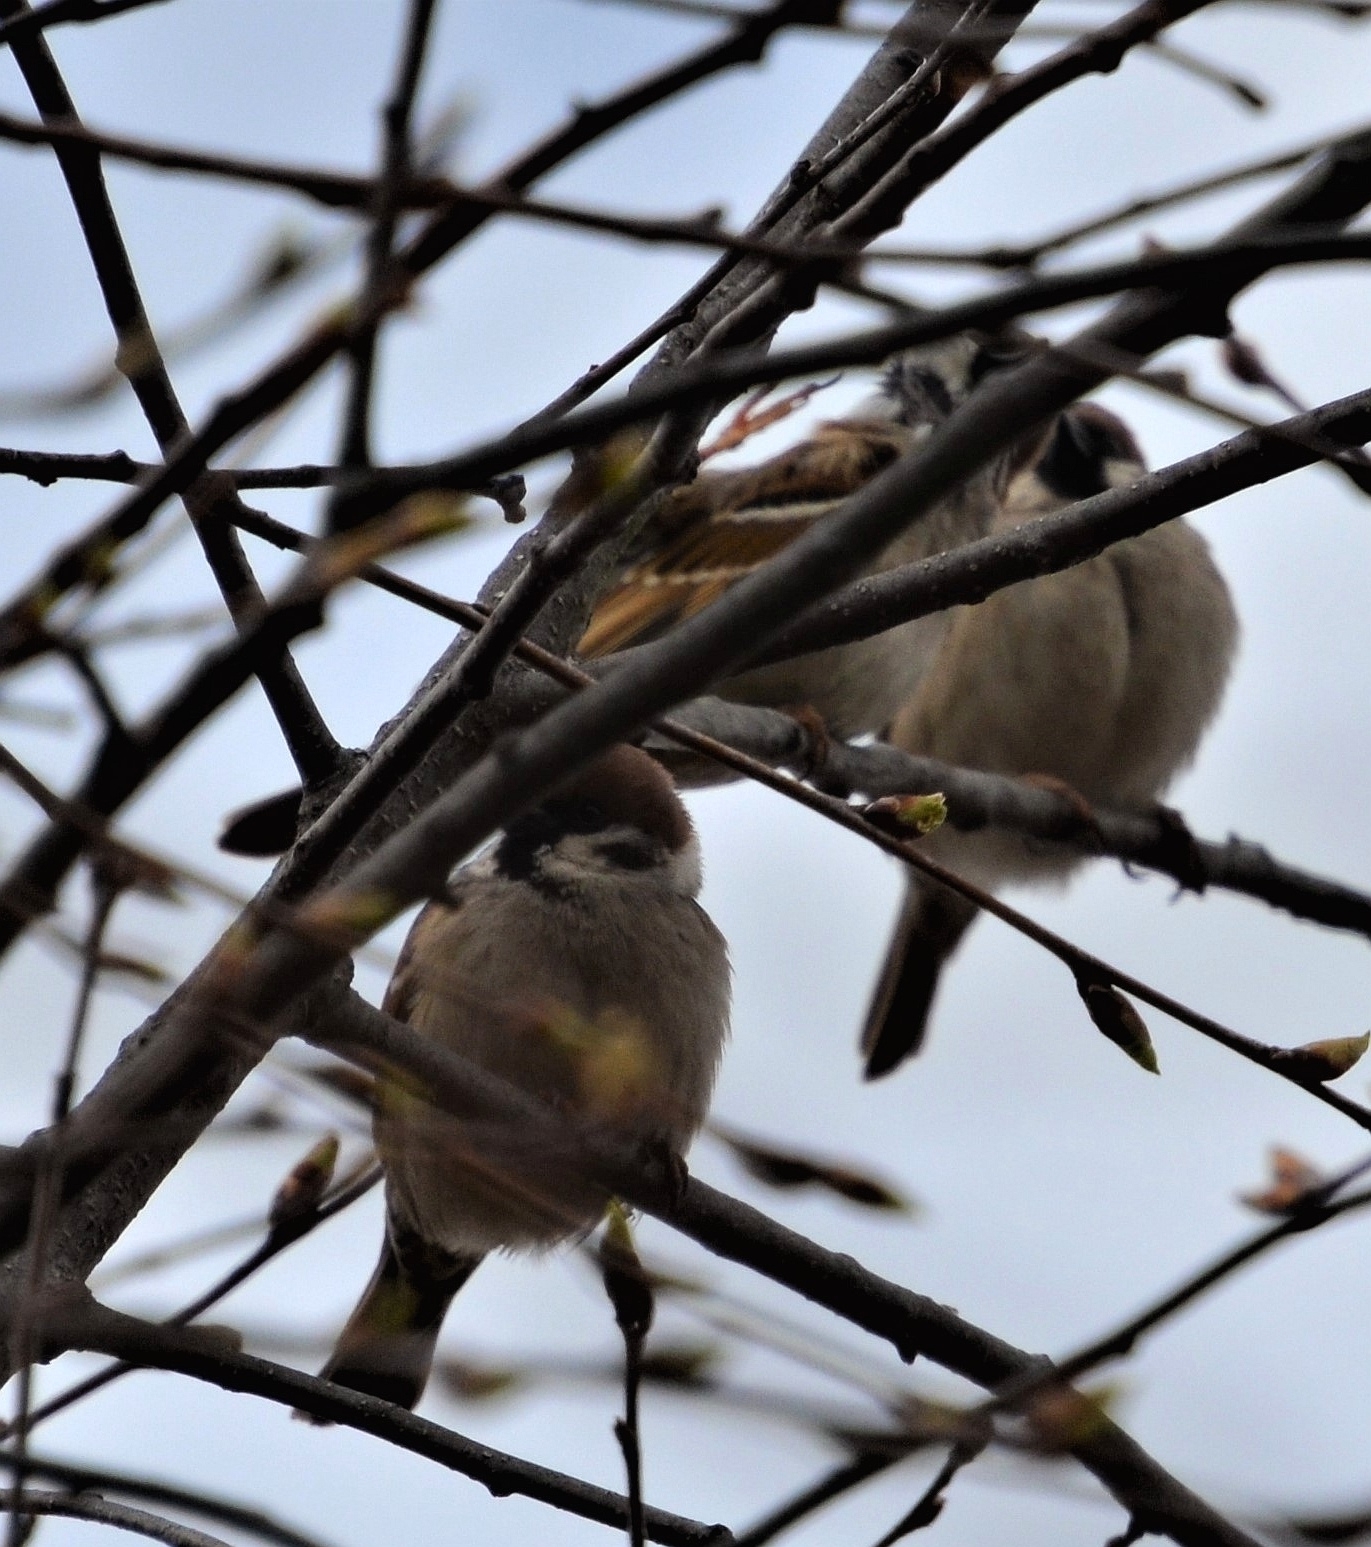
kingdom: Animalia
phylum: Chordata
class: Aves
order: Passeriformes
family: Passeridae
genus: Passer
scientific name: Passer montanus
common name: Eurasian tree sparrow
